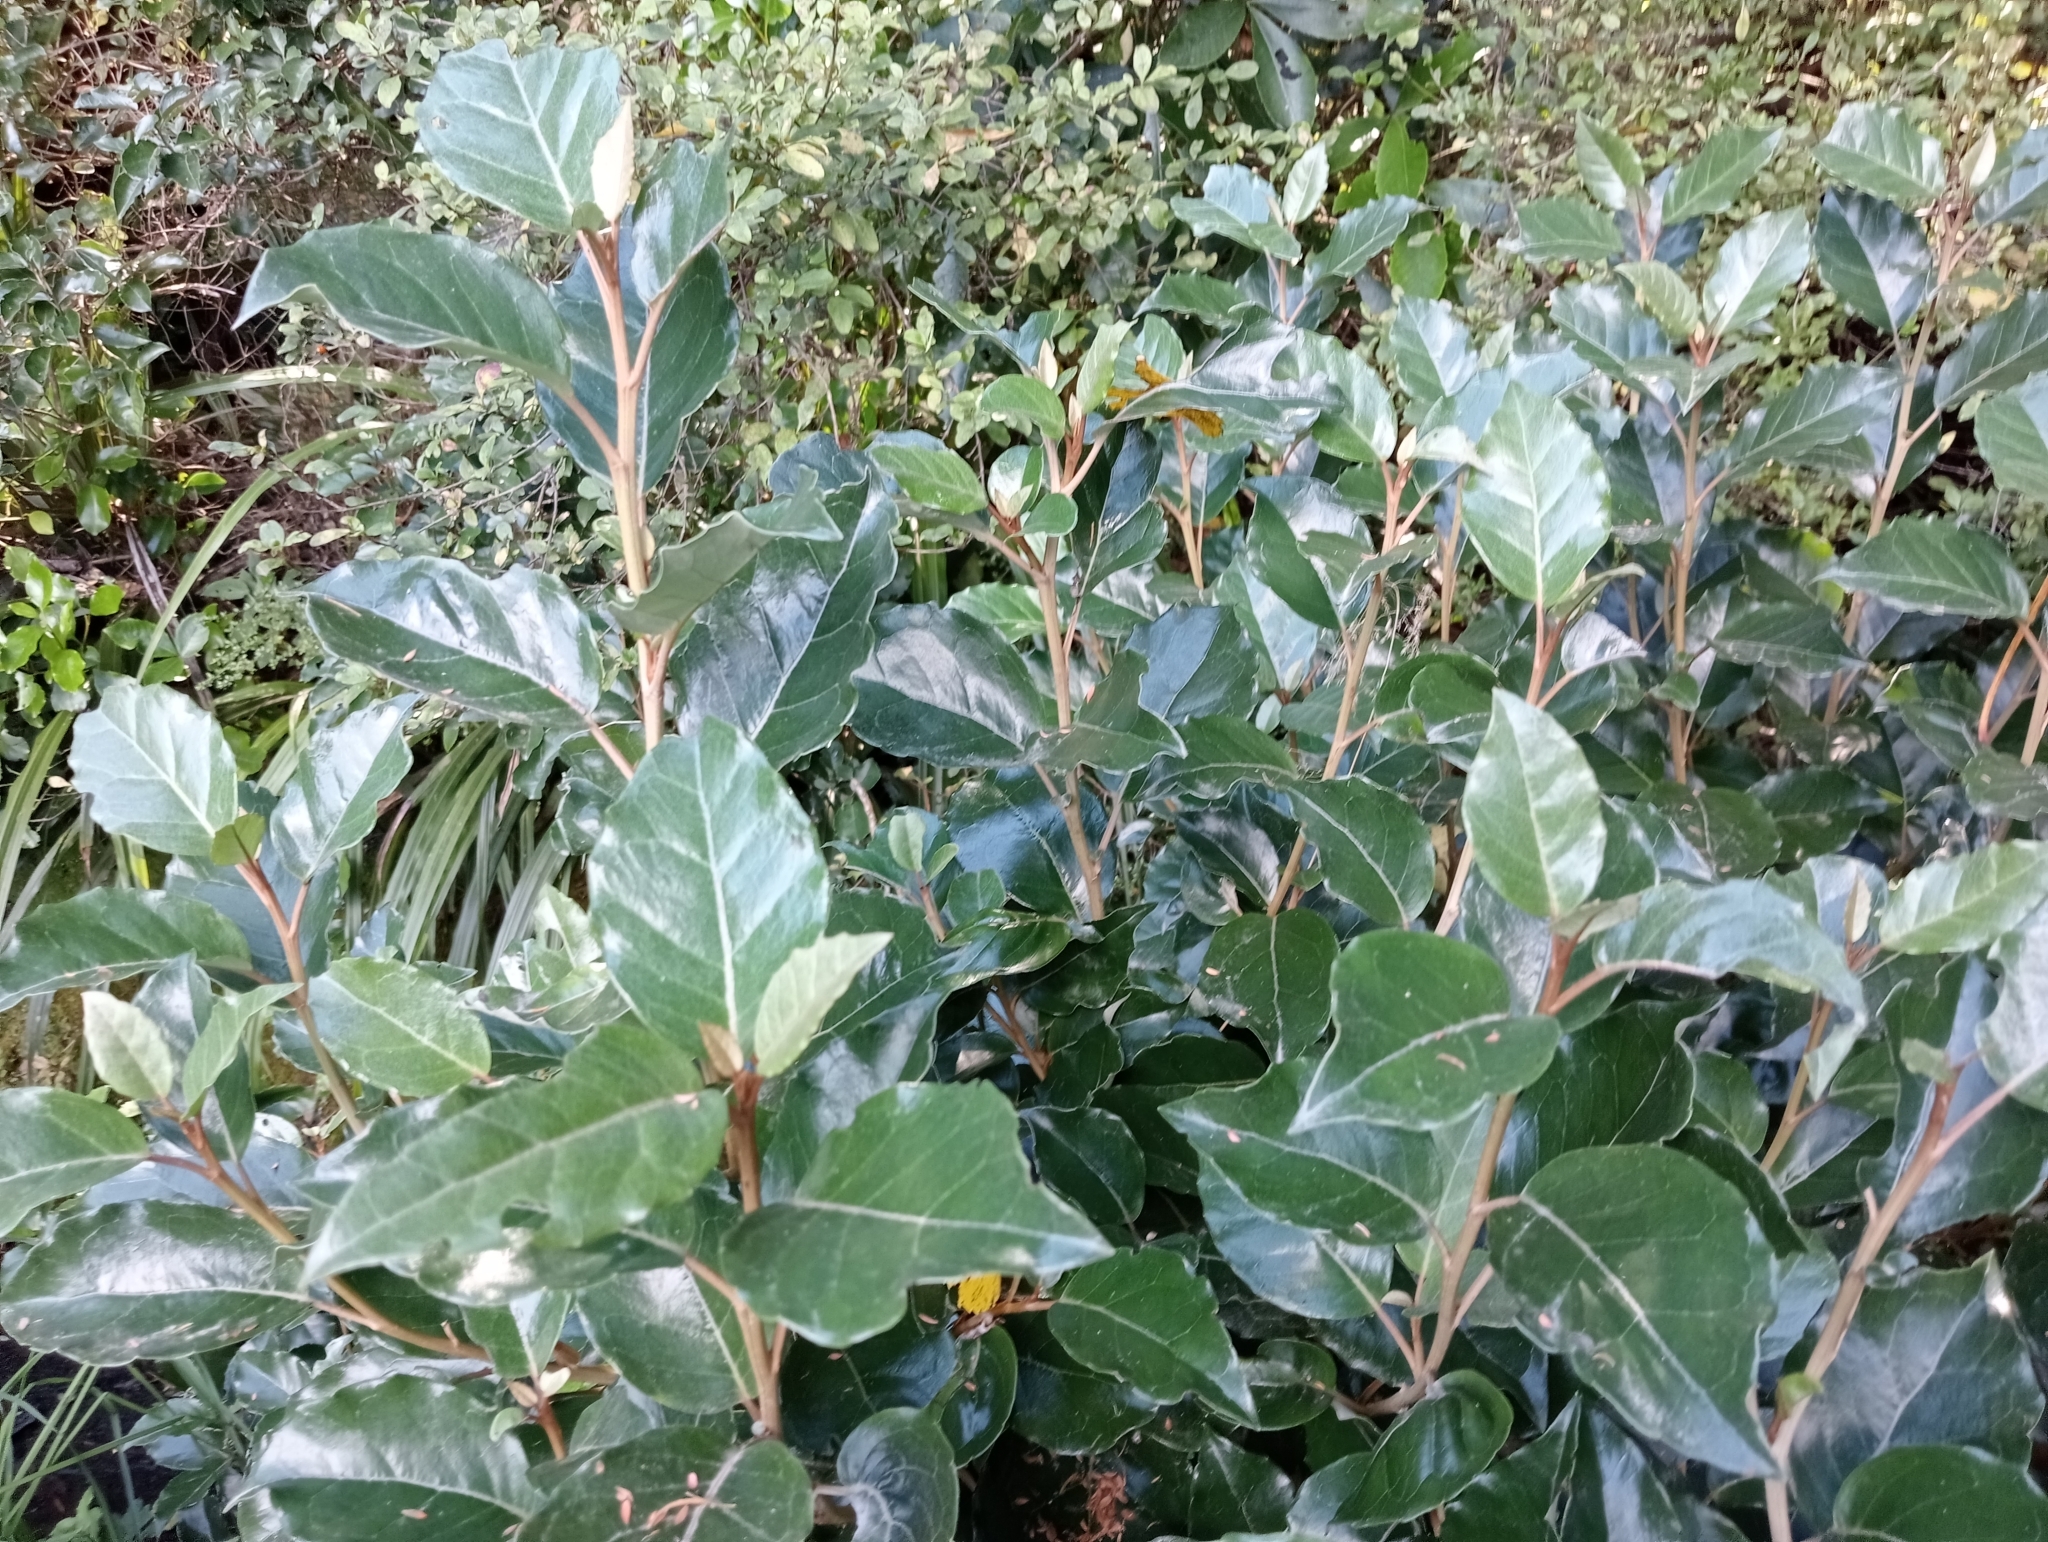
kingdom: Plantae
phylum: Tracheophyta
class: Magnoliopsida
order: Asterales
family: Asteraceae
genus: Olearia
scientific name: Olearia arborescens
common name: Glossy tree daisy
